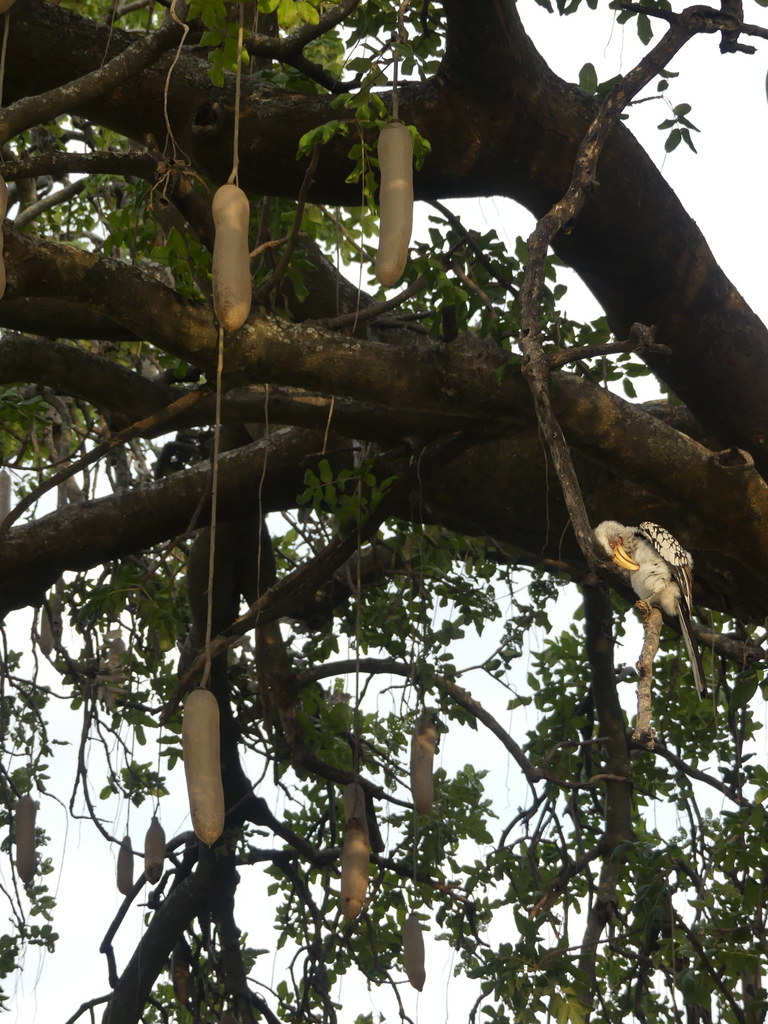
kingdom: Plantae
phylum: Tracheophyta
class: Magnoliopsida
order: Lamiales
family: Bignoniaceae
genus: Kigelia
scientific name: Kigelia africana
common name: Sausage tree
